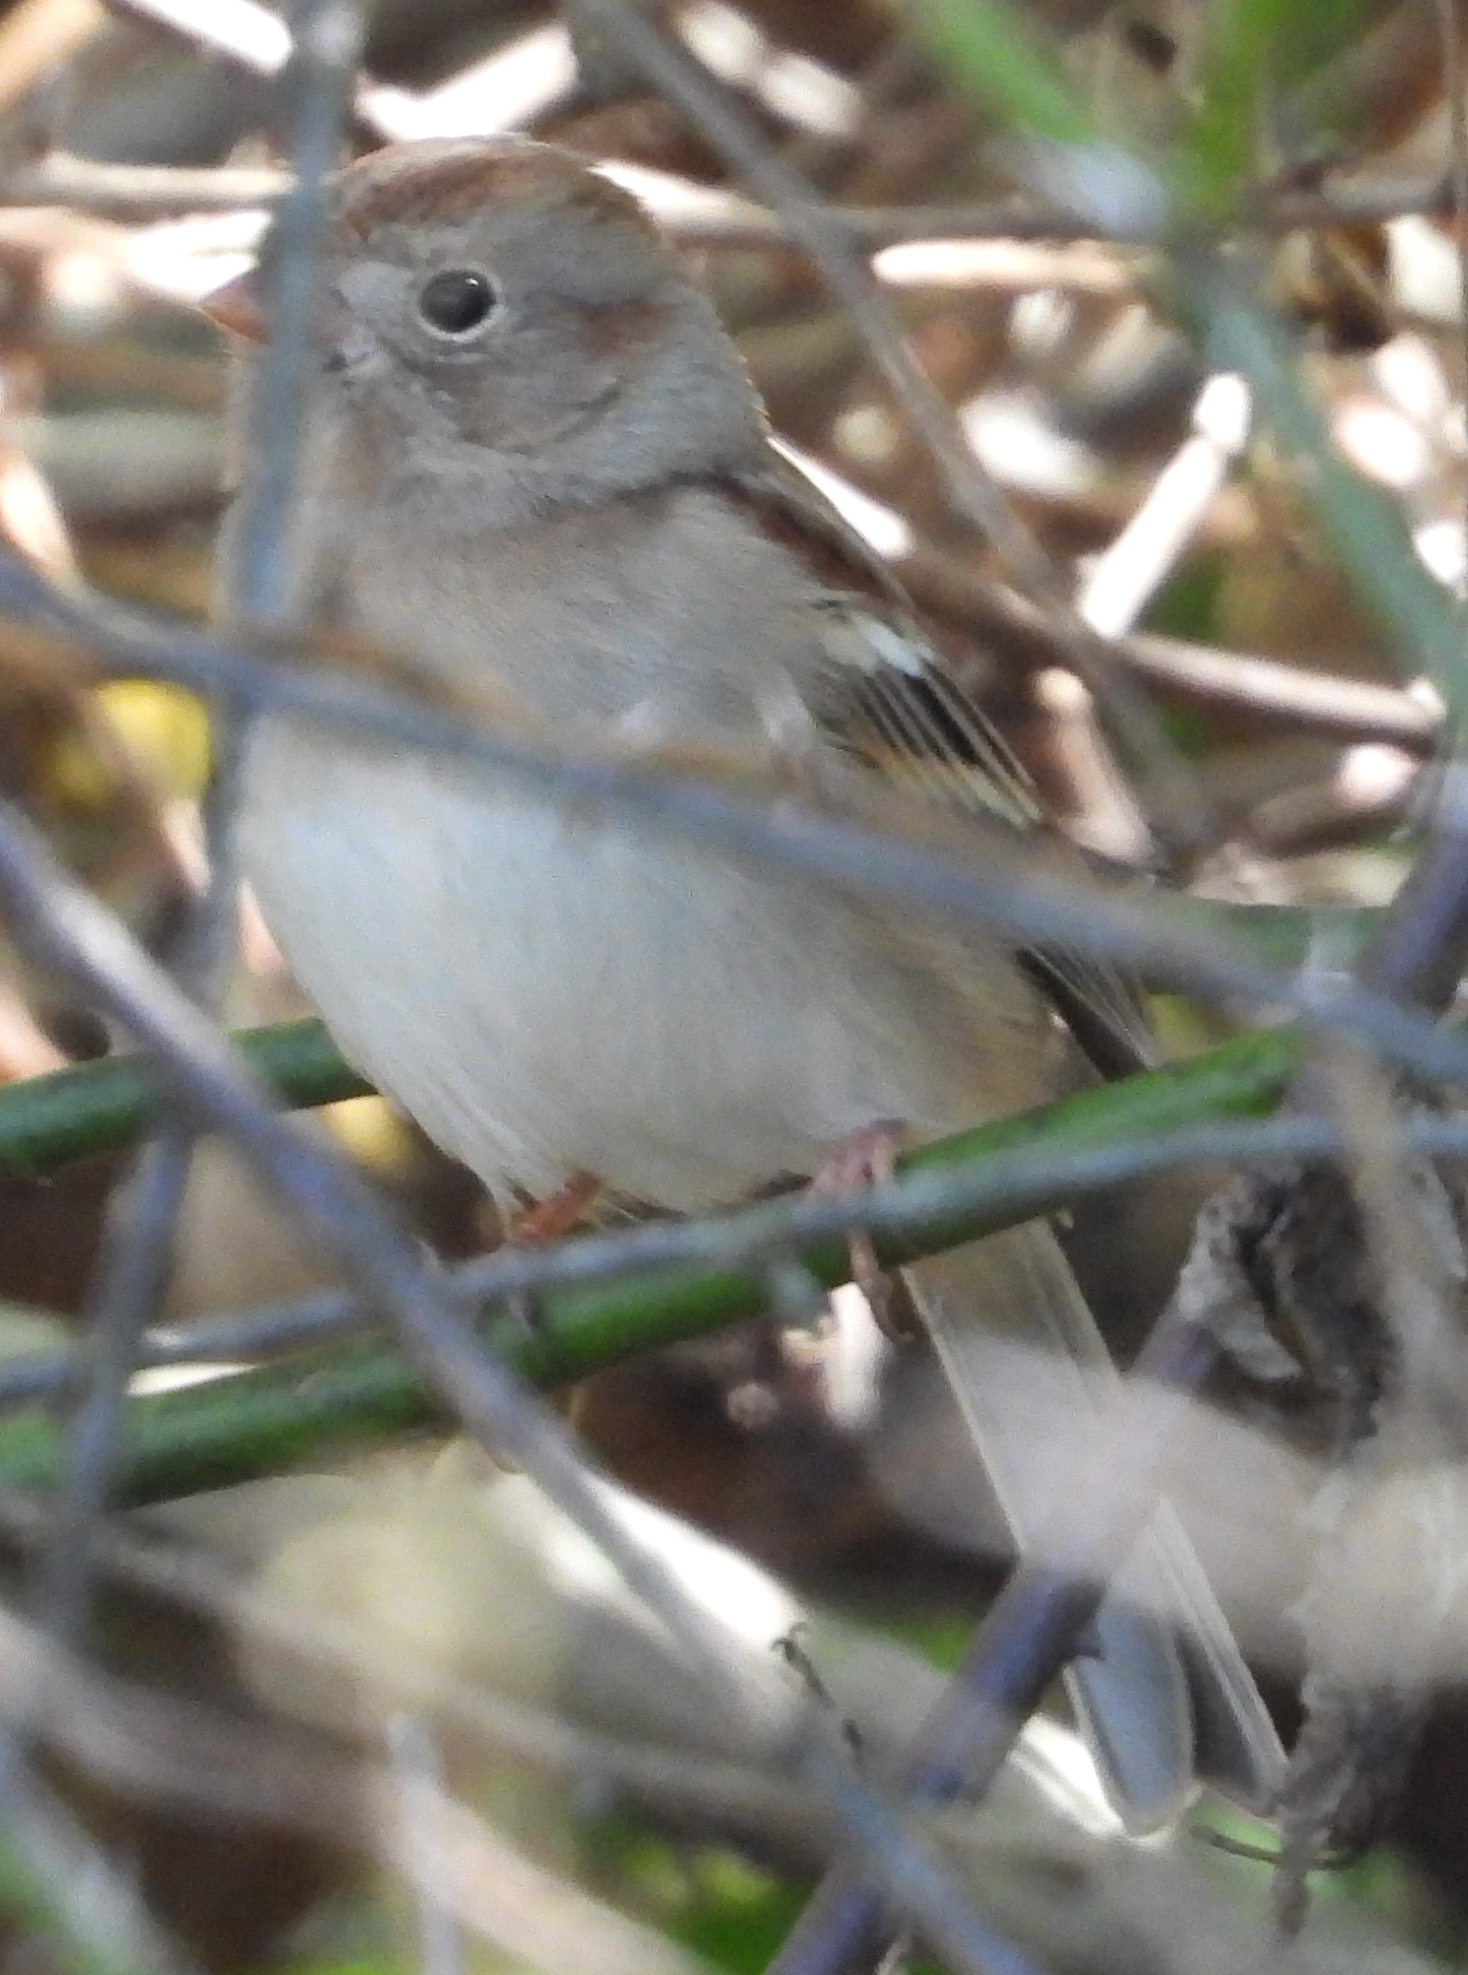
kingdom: Animalia
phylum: Chordata
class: Aves
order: Passeriformes
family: Passerellidae
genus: Spizella
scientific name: Spizella pusilla
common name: Field sparrow
